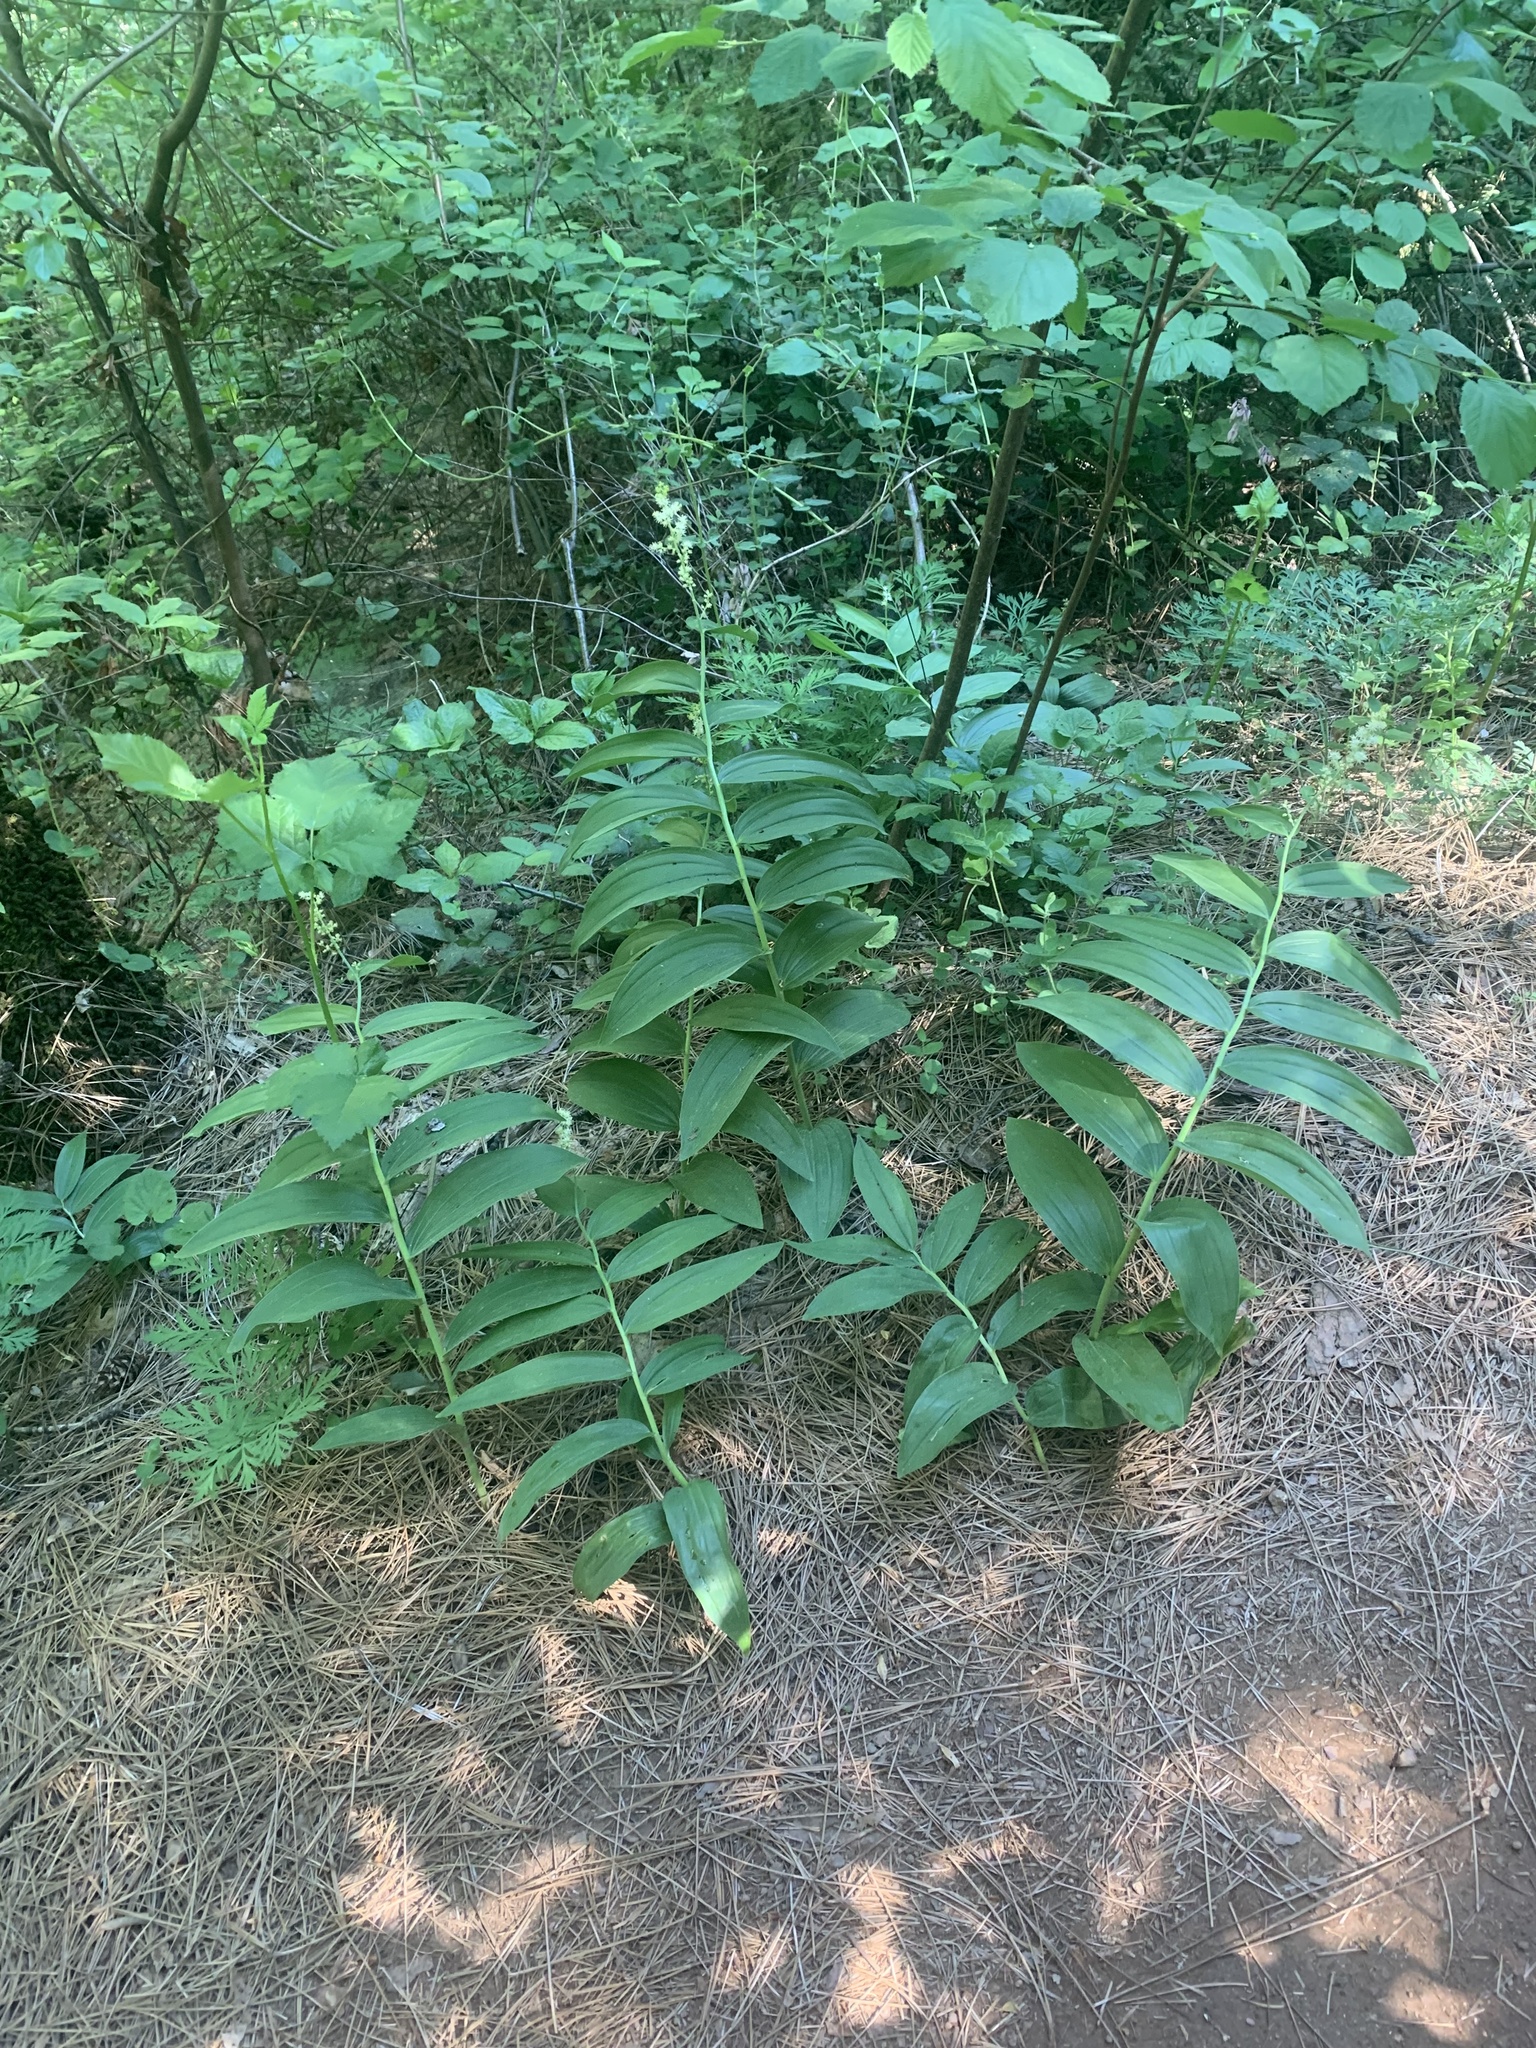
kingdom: Plantae
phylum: Tracheophyta
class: Liliopsida
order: Asparagales
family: Asparagaceae
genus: Maianthemum
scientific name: Maianthemum racemosum
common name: False spikenard
